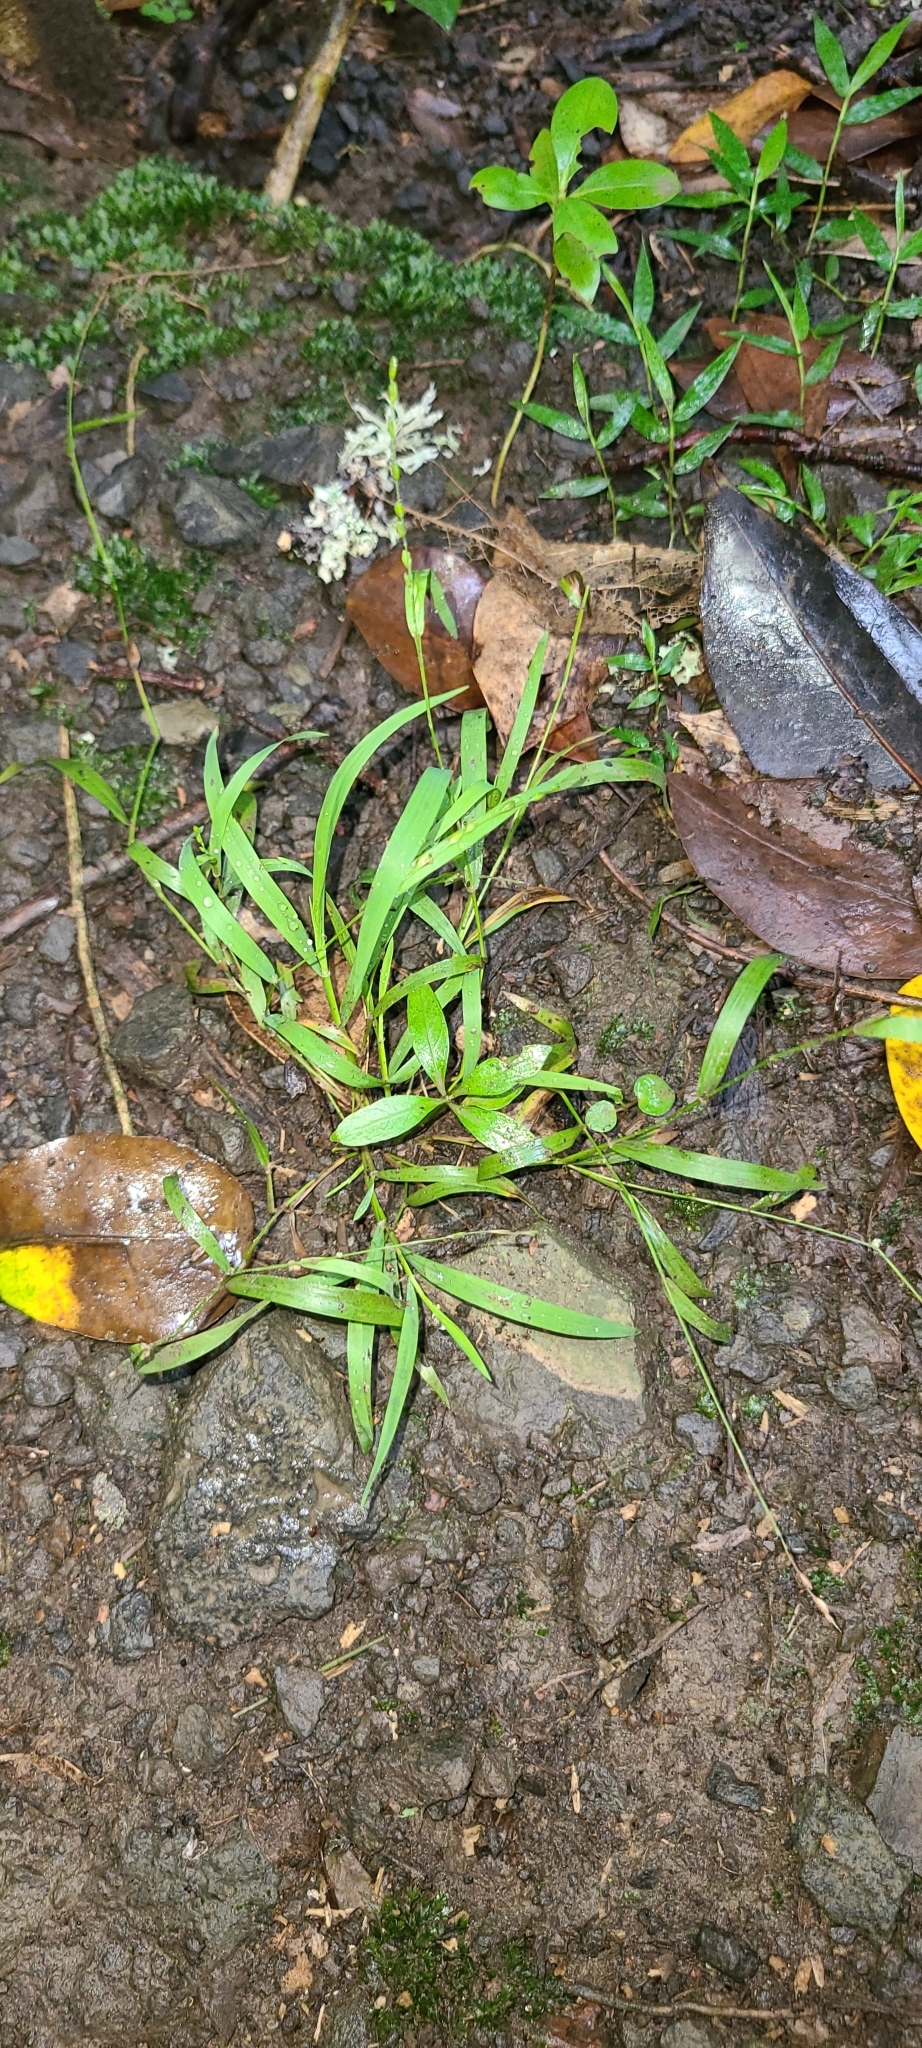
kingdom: Plantae
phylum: Tracheophyta
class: Liliopsida
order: Poales
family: Poaceae
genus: Ehrharta
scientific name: Ehrharta erecta
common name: Panic veldtgrass
